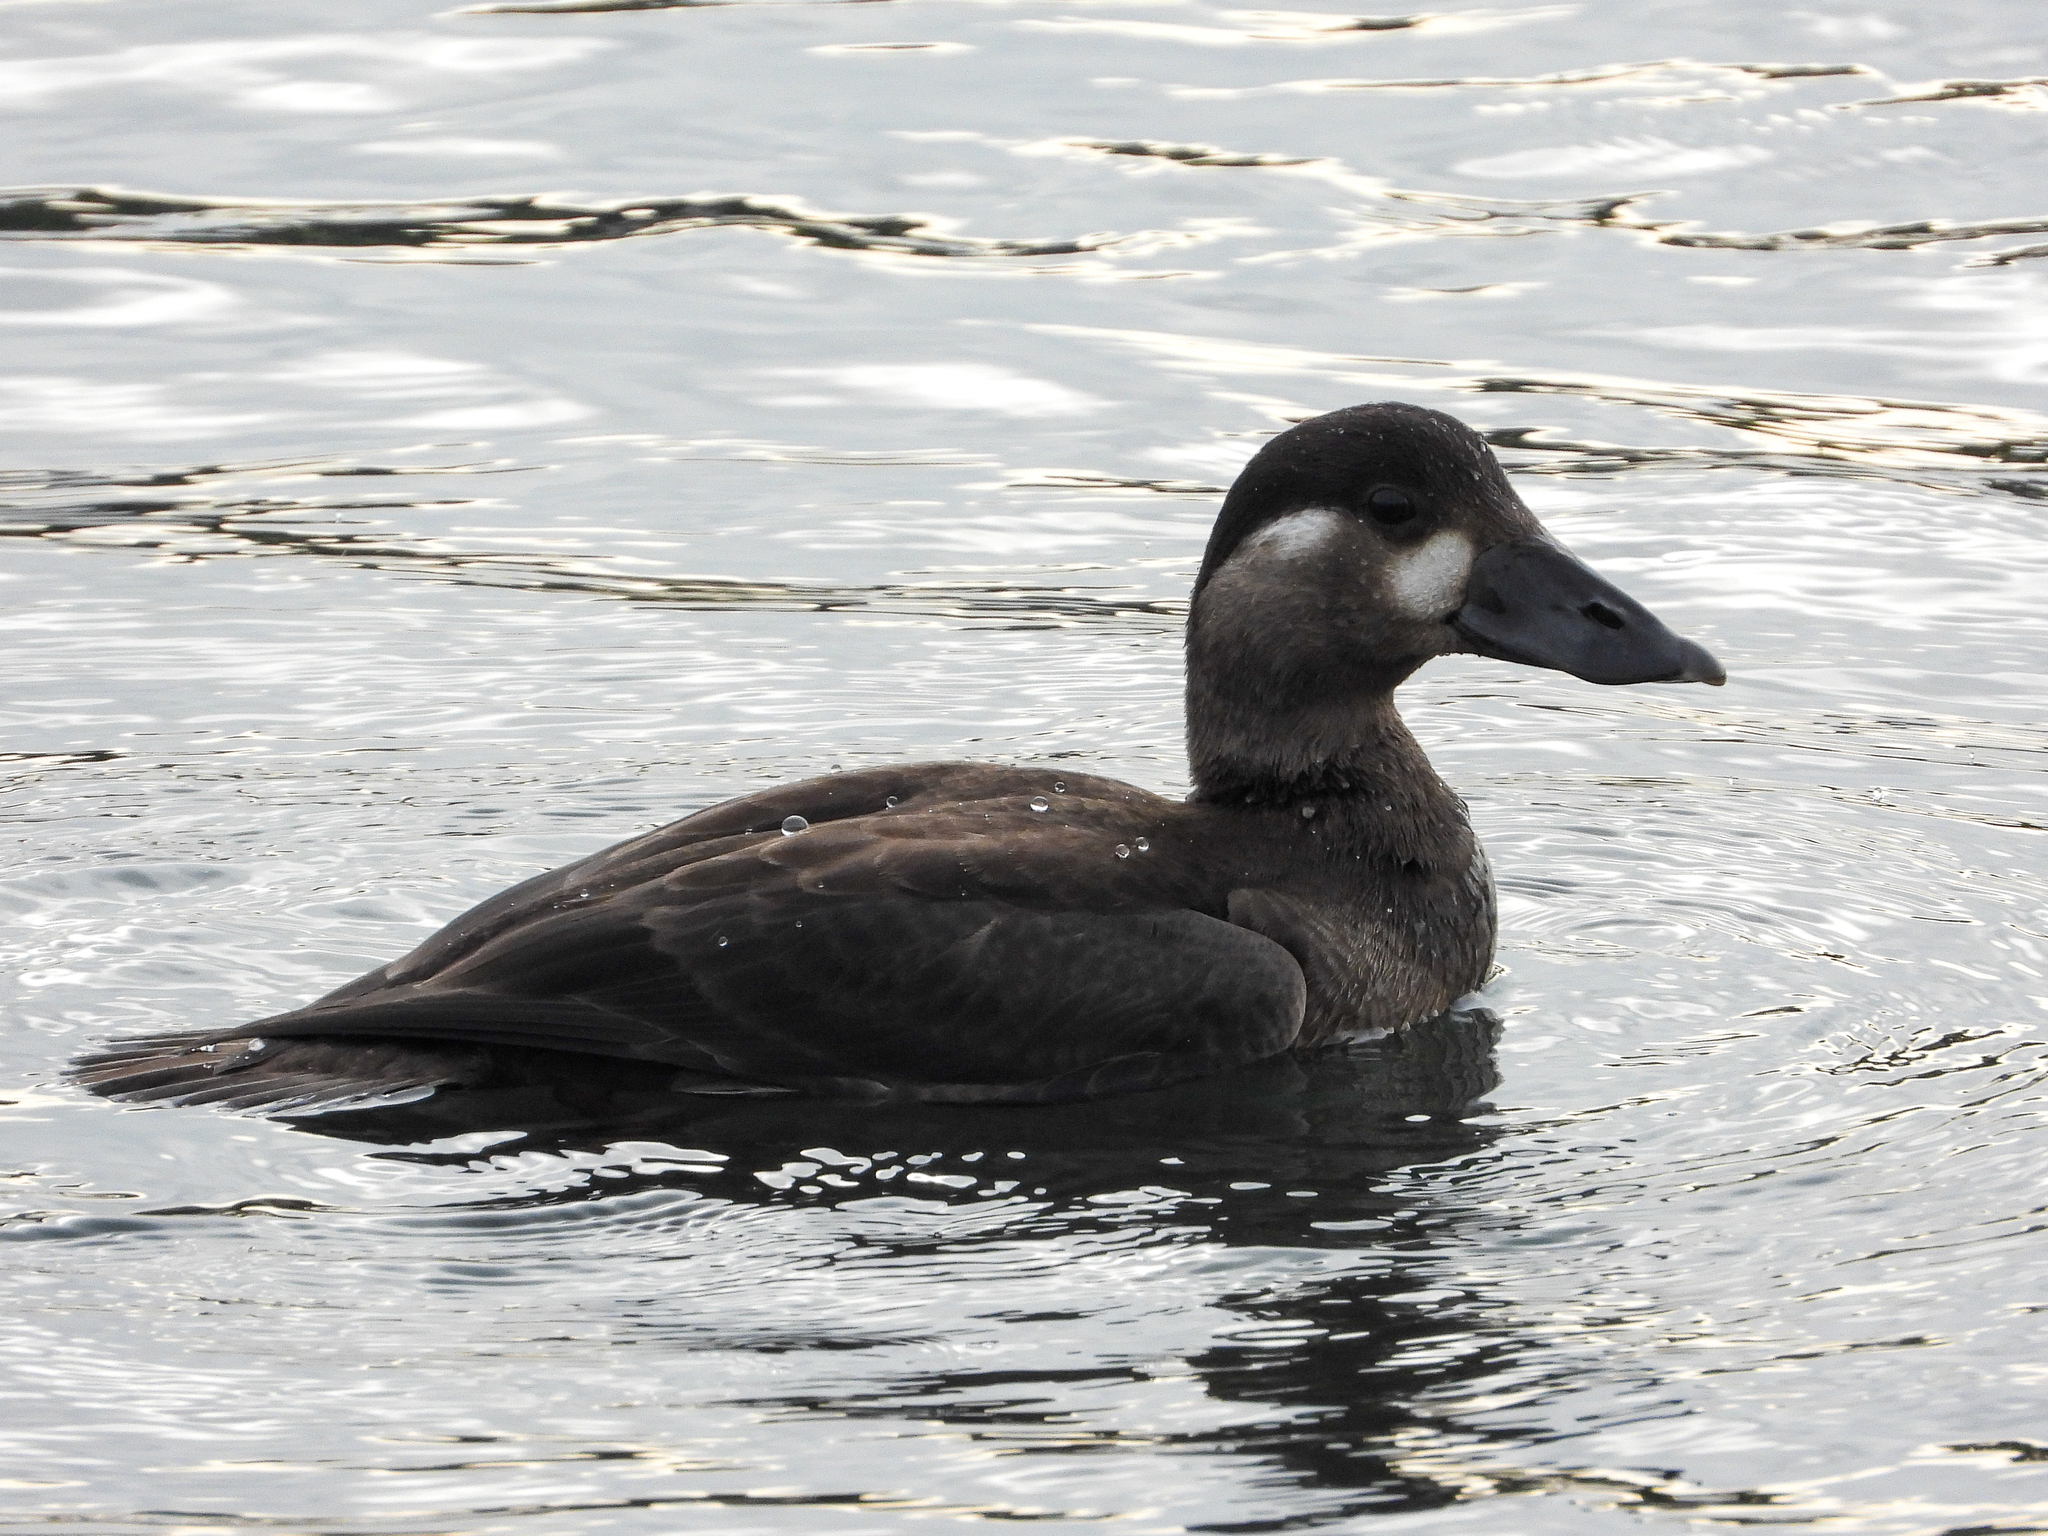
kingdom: Animalia
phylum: Chordata
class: Aves
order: Anseriformes
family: Anatidae
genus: Melanitta
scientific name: Melanitta perspicillata
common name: Surf scoter
